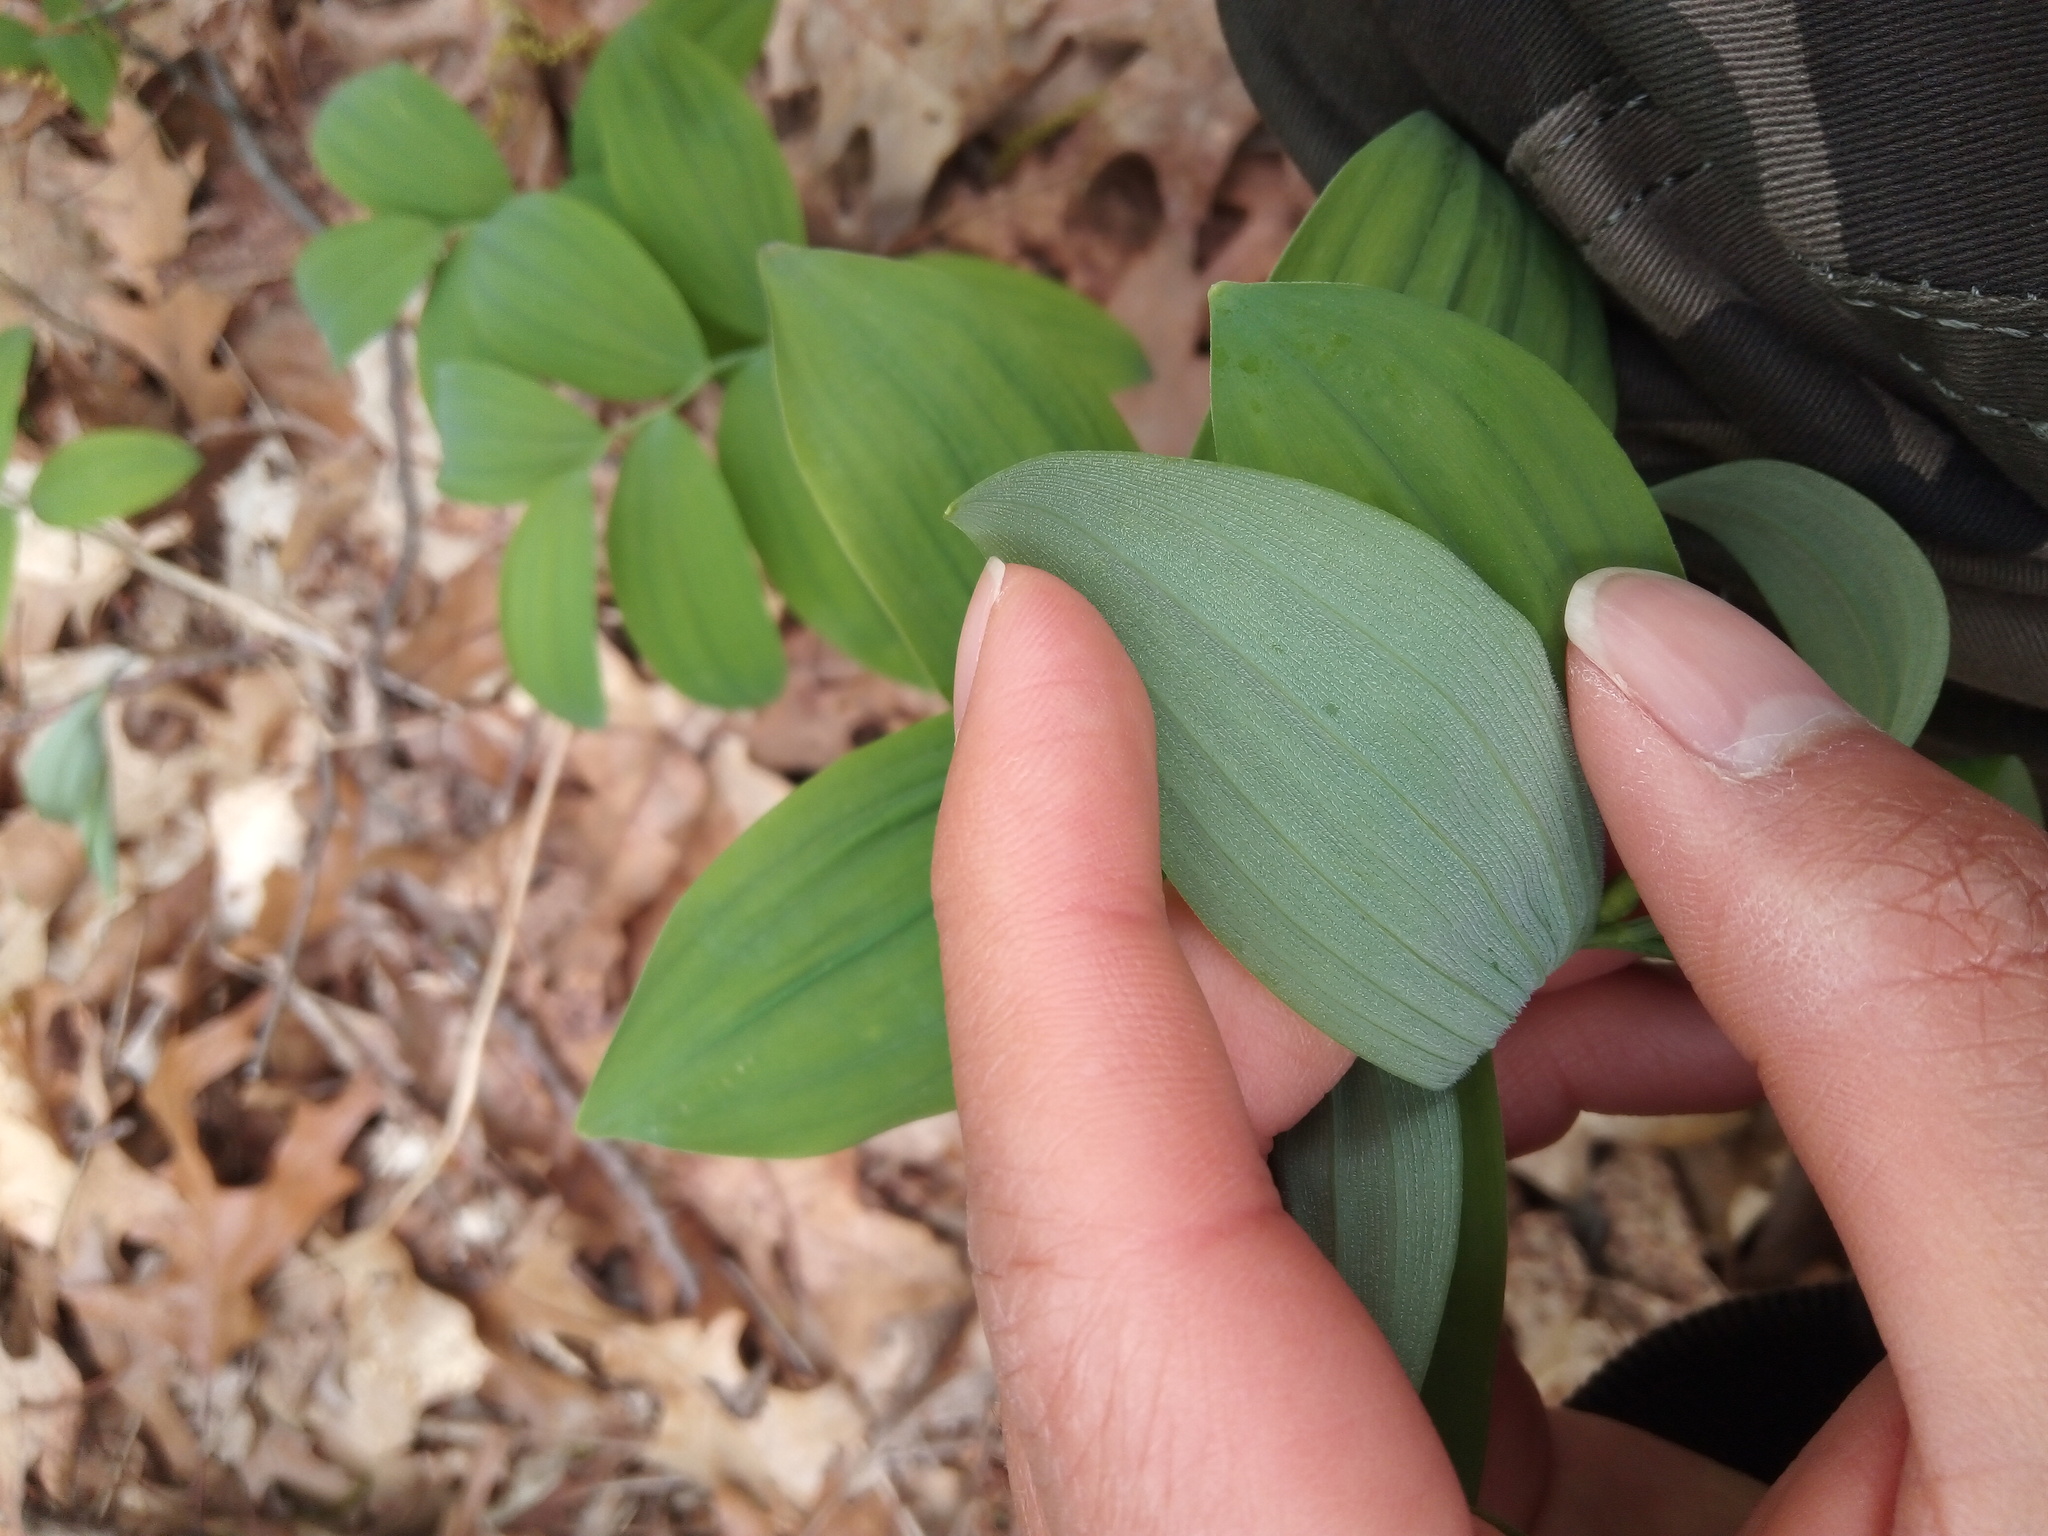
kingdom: Plantae
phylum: Tracheophyta
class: Liliopsida
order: Asparagales
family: Asparagaceae
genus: Polygonatum
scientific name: Polygonatum pubescens
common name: Downy solomon's seal
